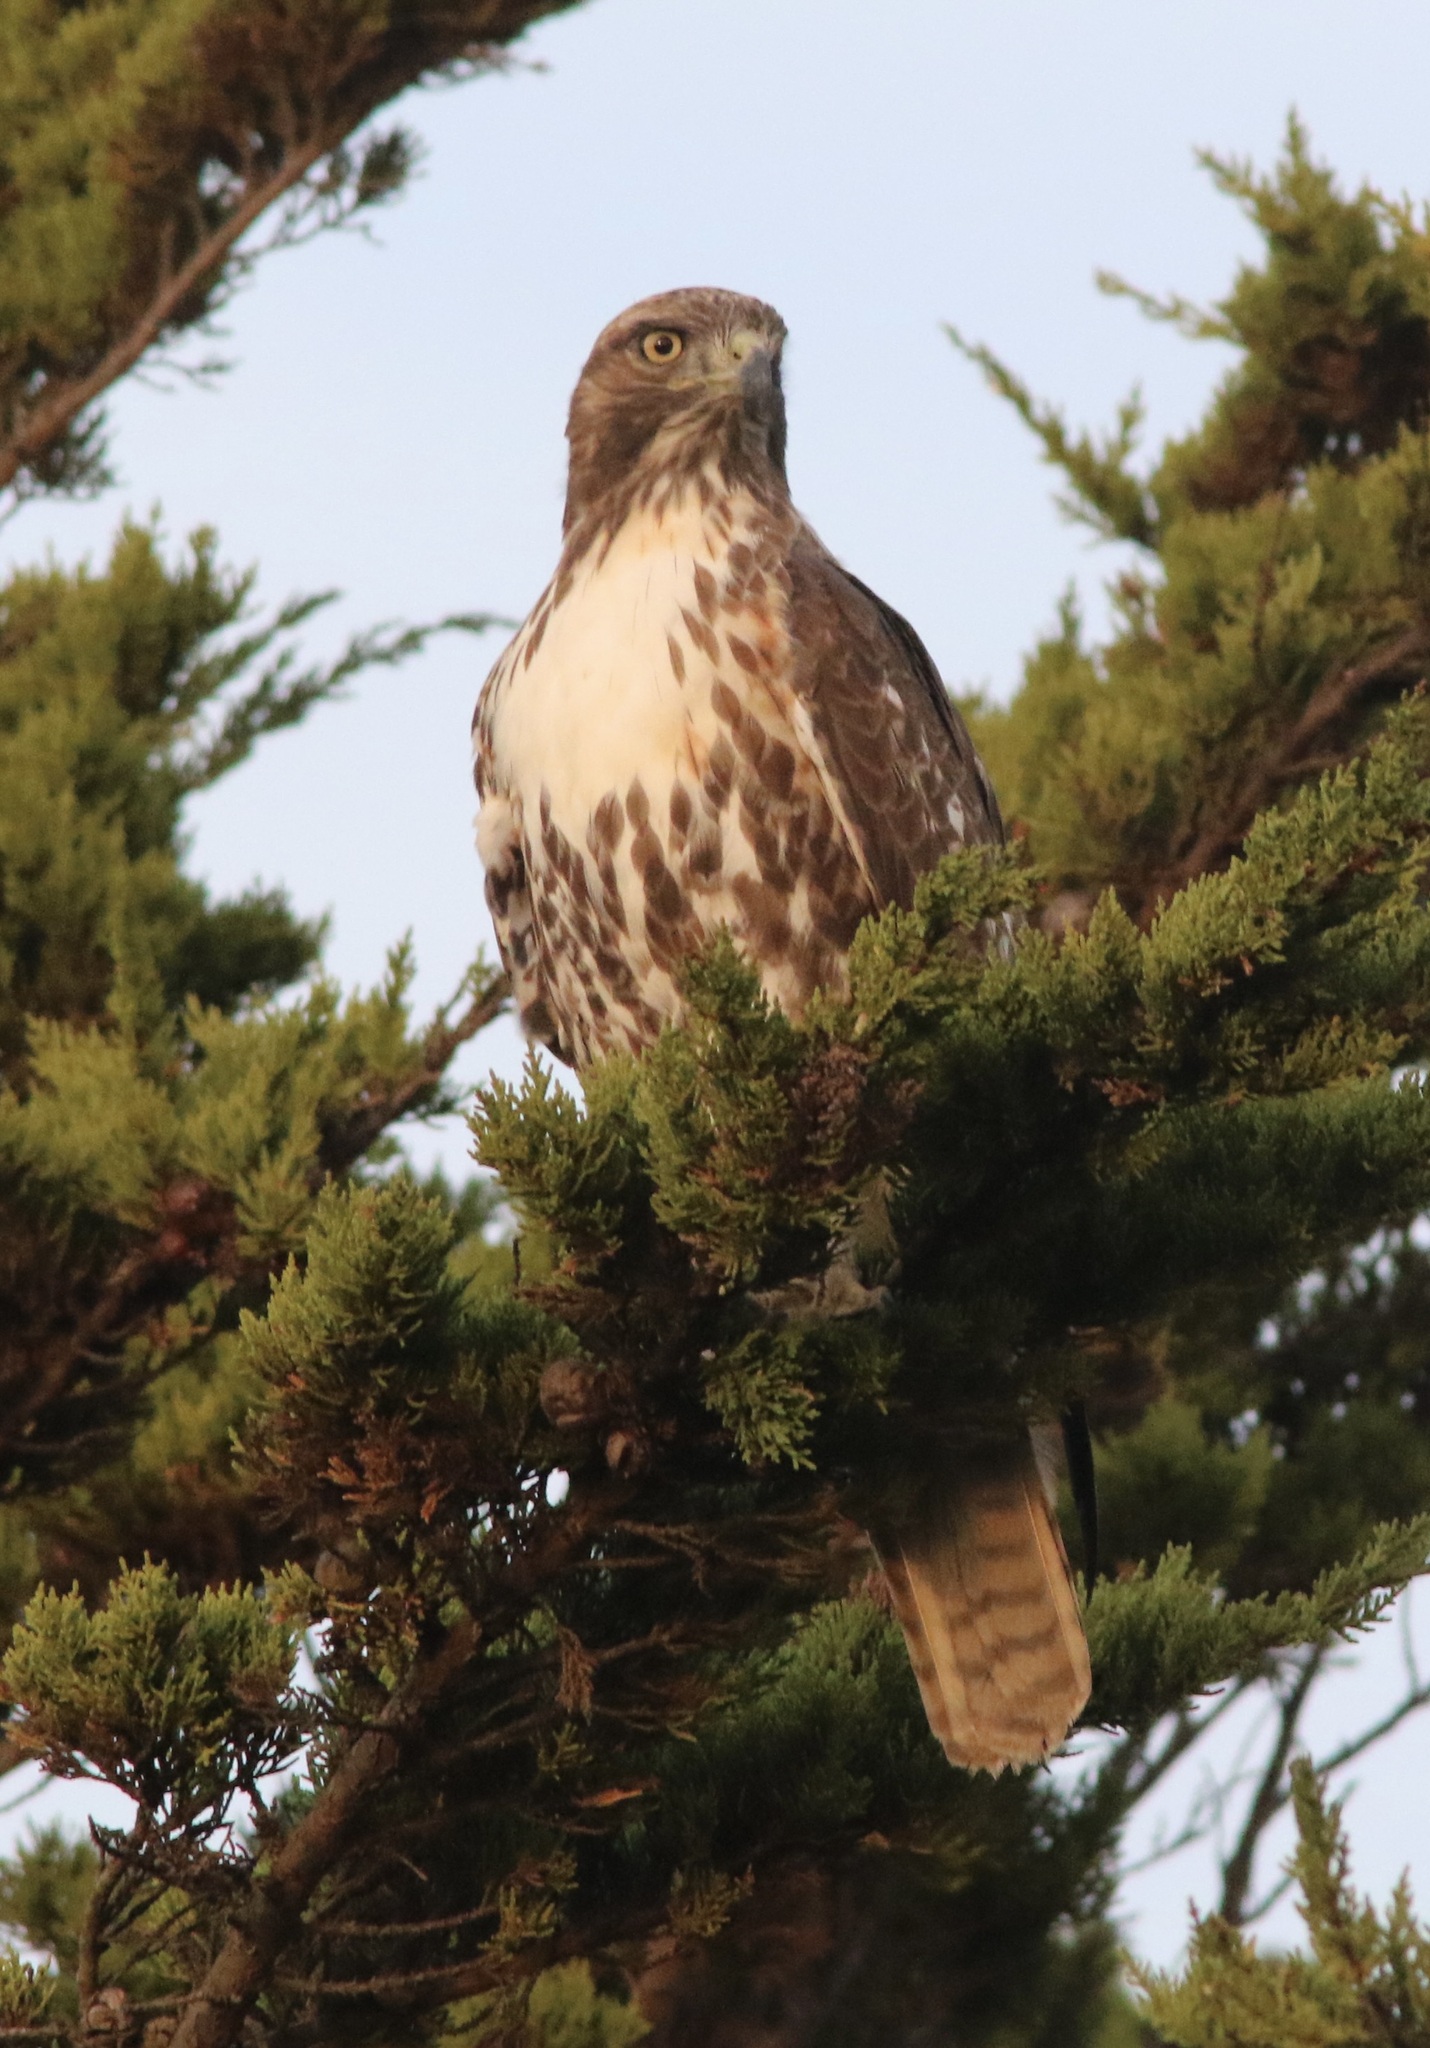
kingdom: Animalia
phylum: Chordata
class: Aves
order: Accipitriformes
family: Accipitridae
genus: Buteo
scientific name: Buteo jamaicensis
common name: Red-tailed hawk
